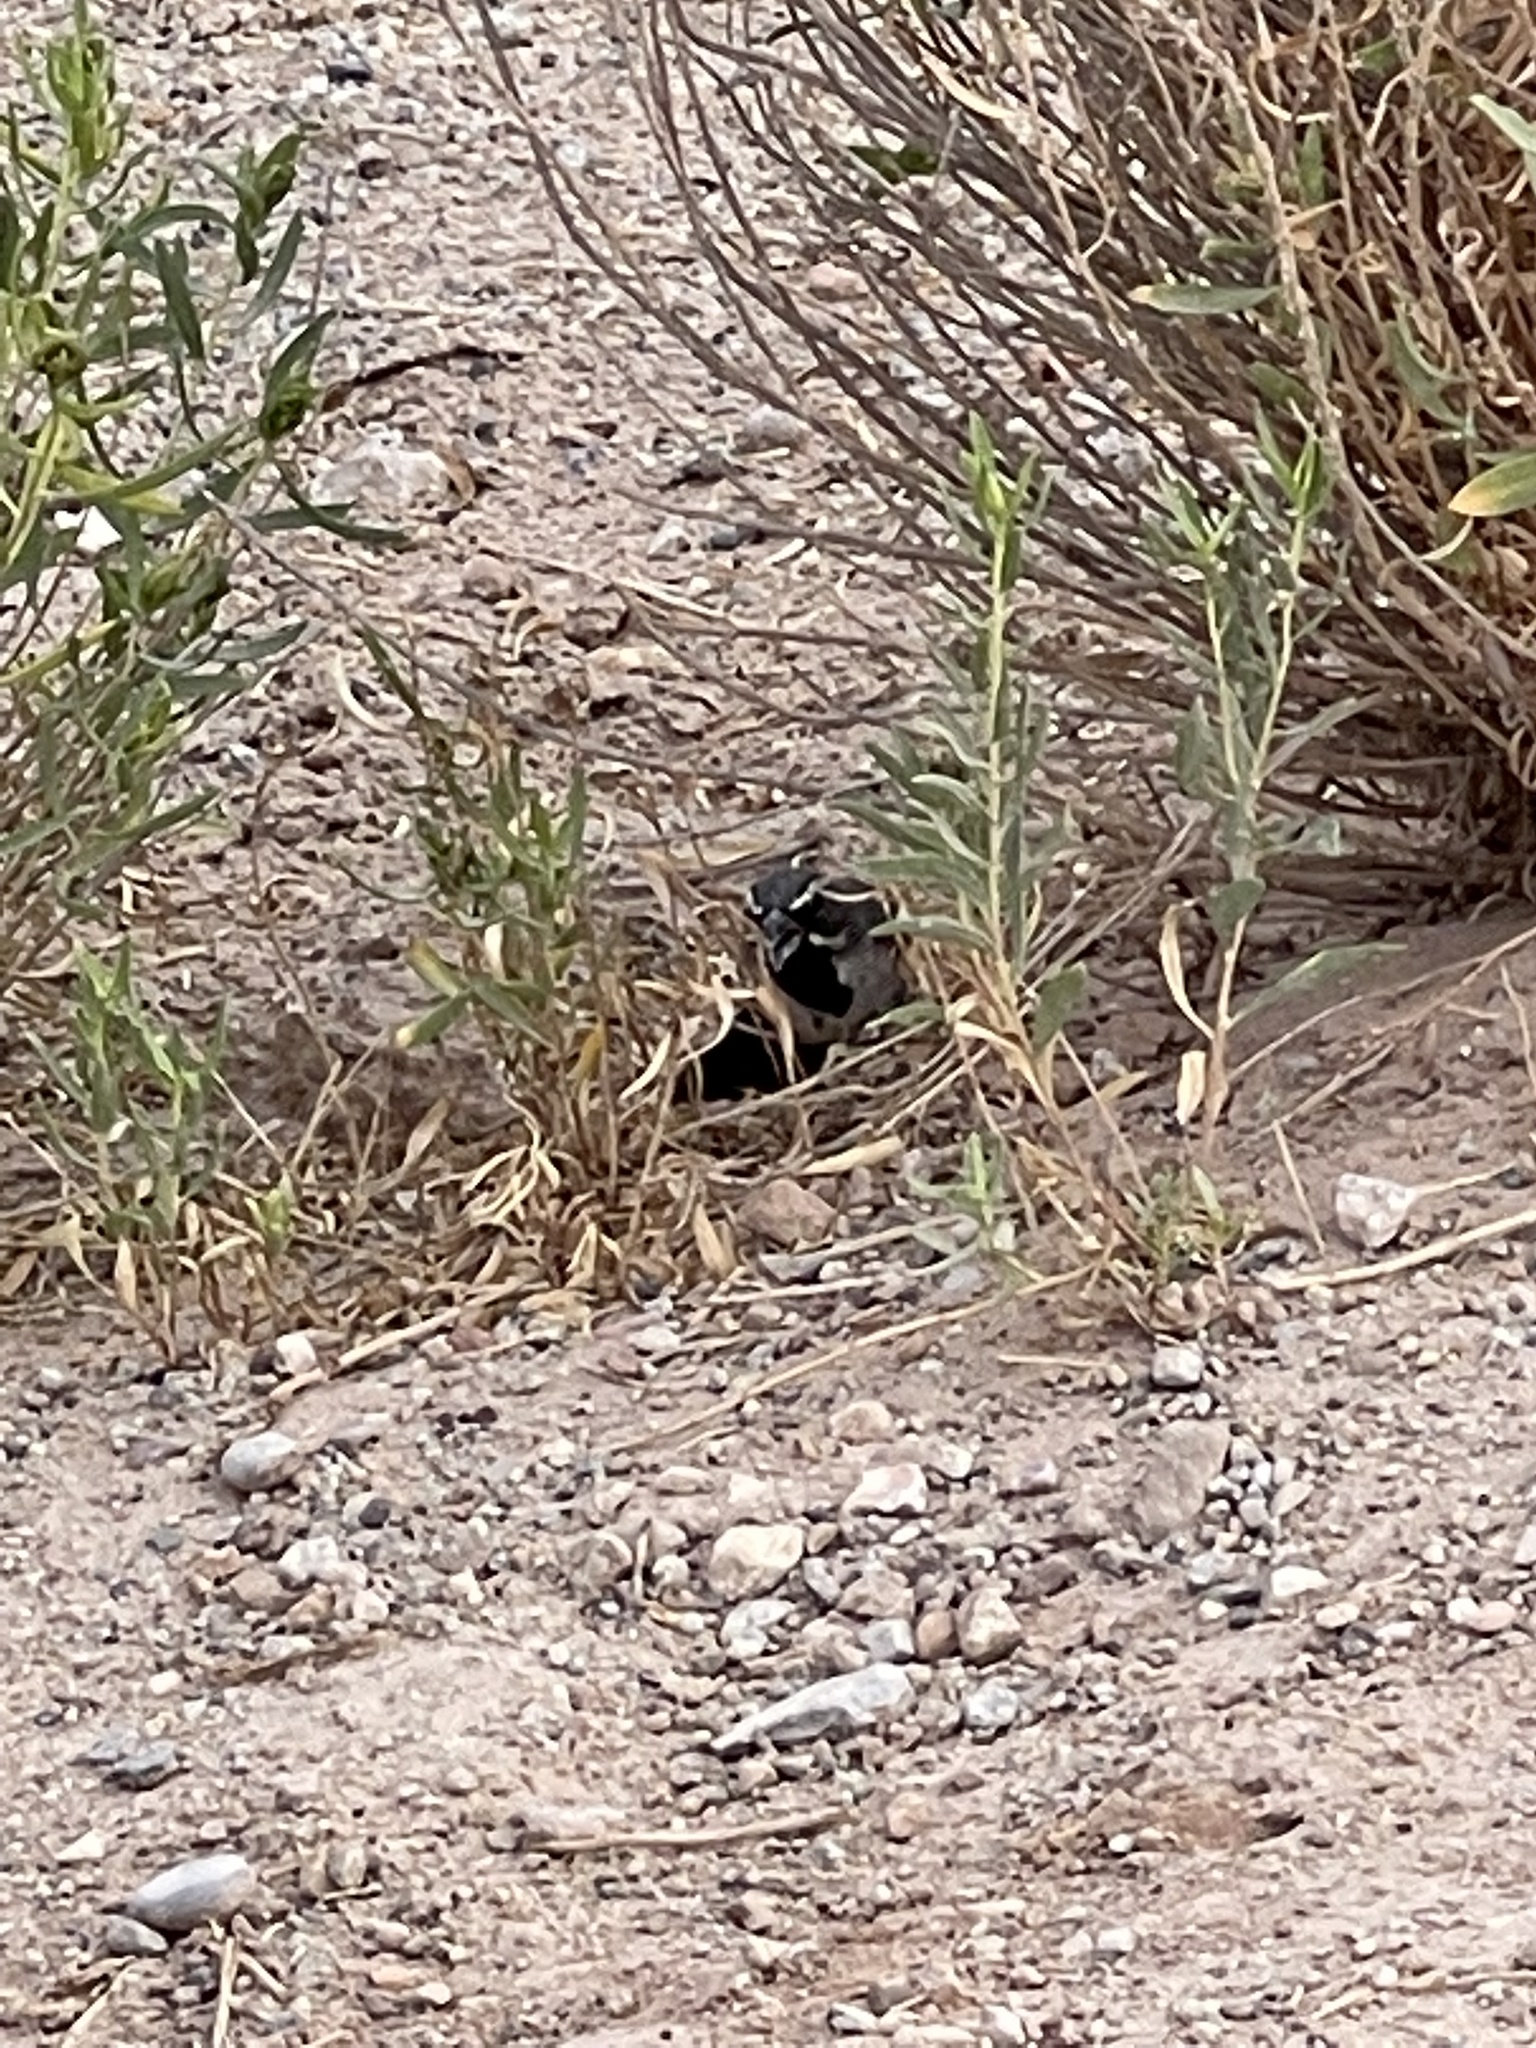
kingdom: Animalia
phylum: Chordata
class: Aves
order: Passeriformes
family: Passerellidae
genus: Amphispiza
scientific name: Amphispiza bilineata
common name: Black-throated sparrow
